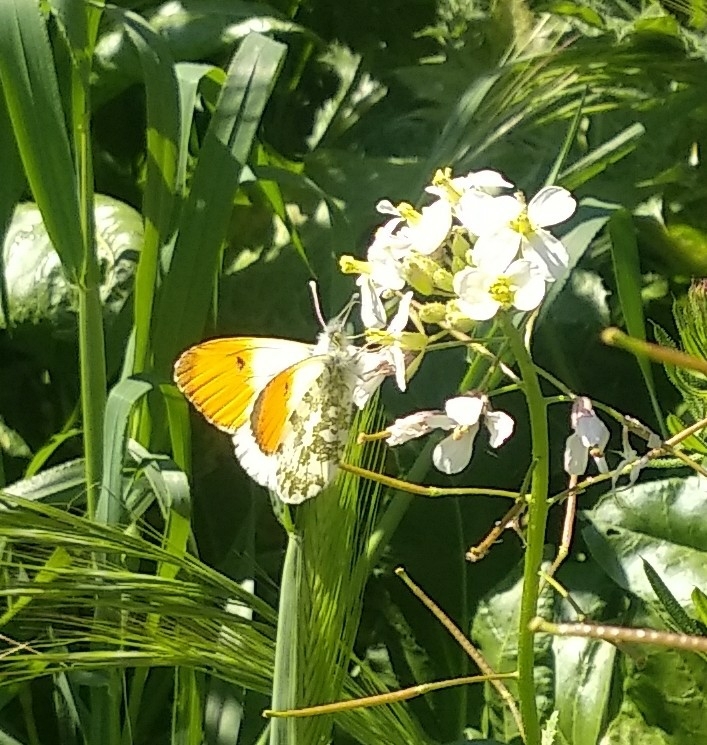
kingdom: Animalia
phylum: Arthropoda
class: Insecta
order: Lepidoptera
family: Pieridae
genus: Anthocharis
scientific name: Anthocharis cardamines
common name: Orange-tip
